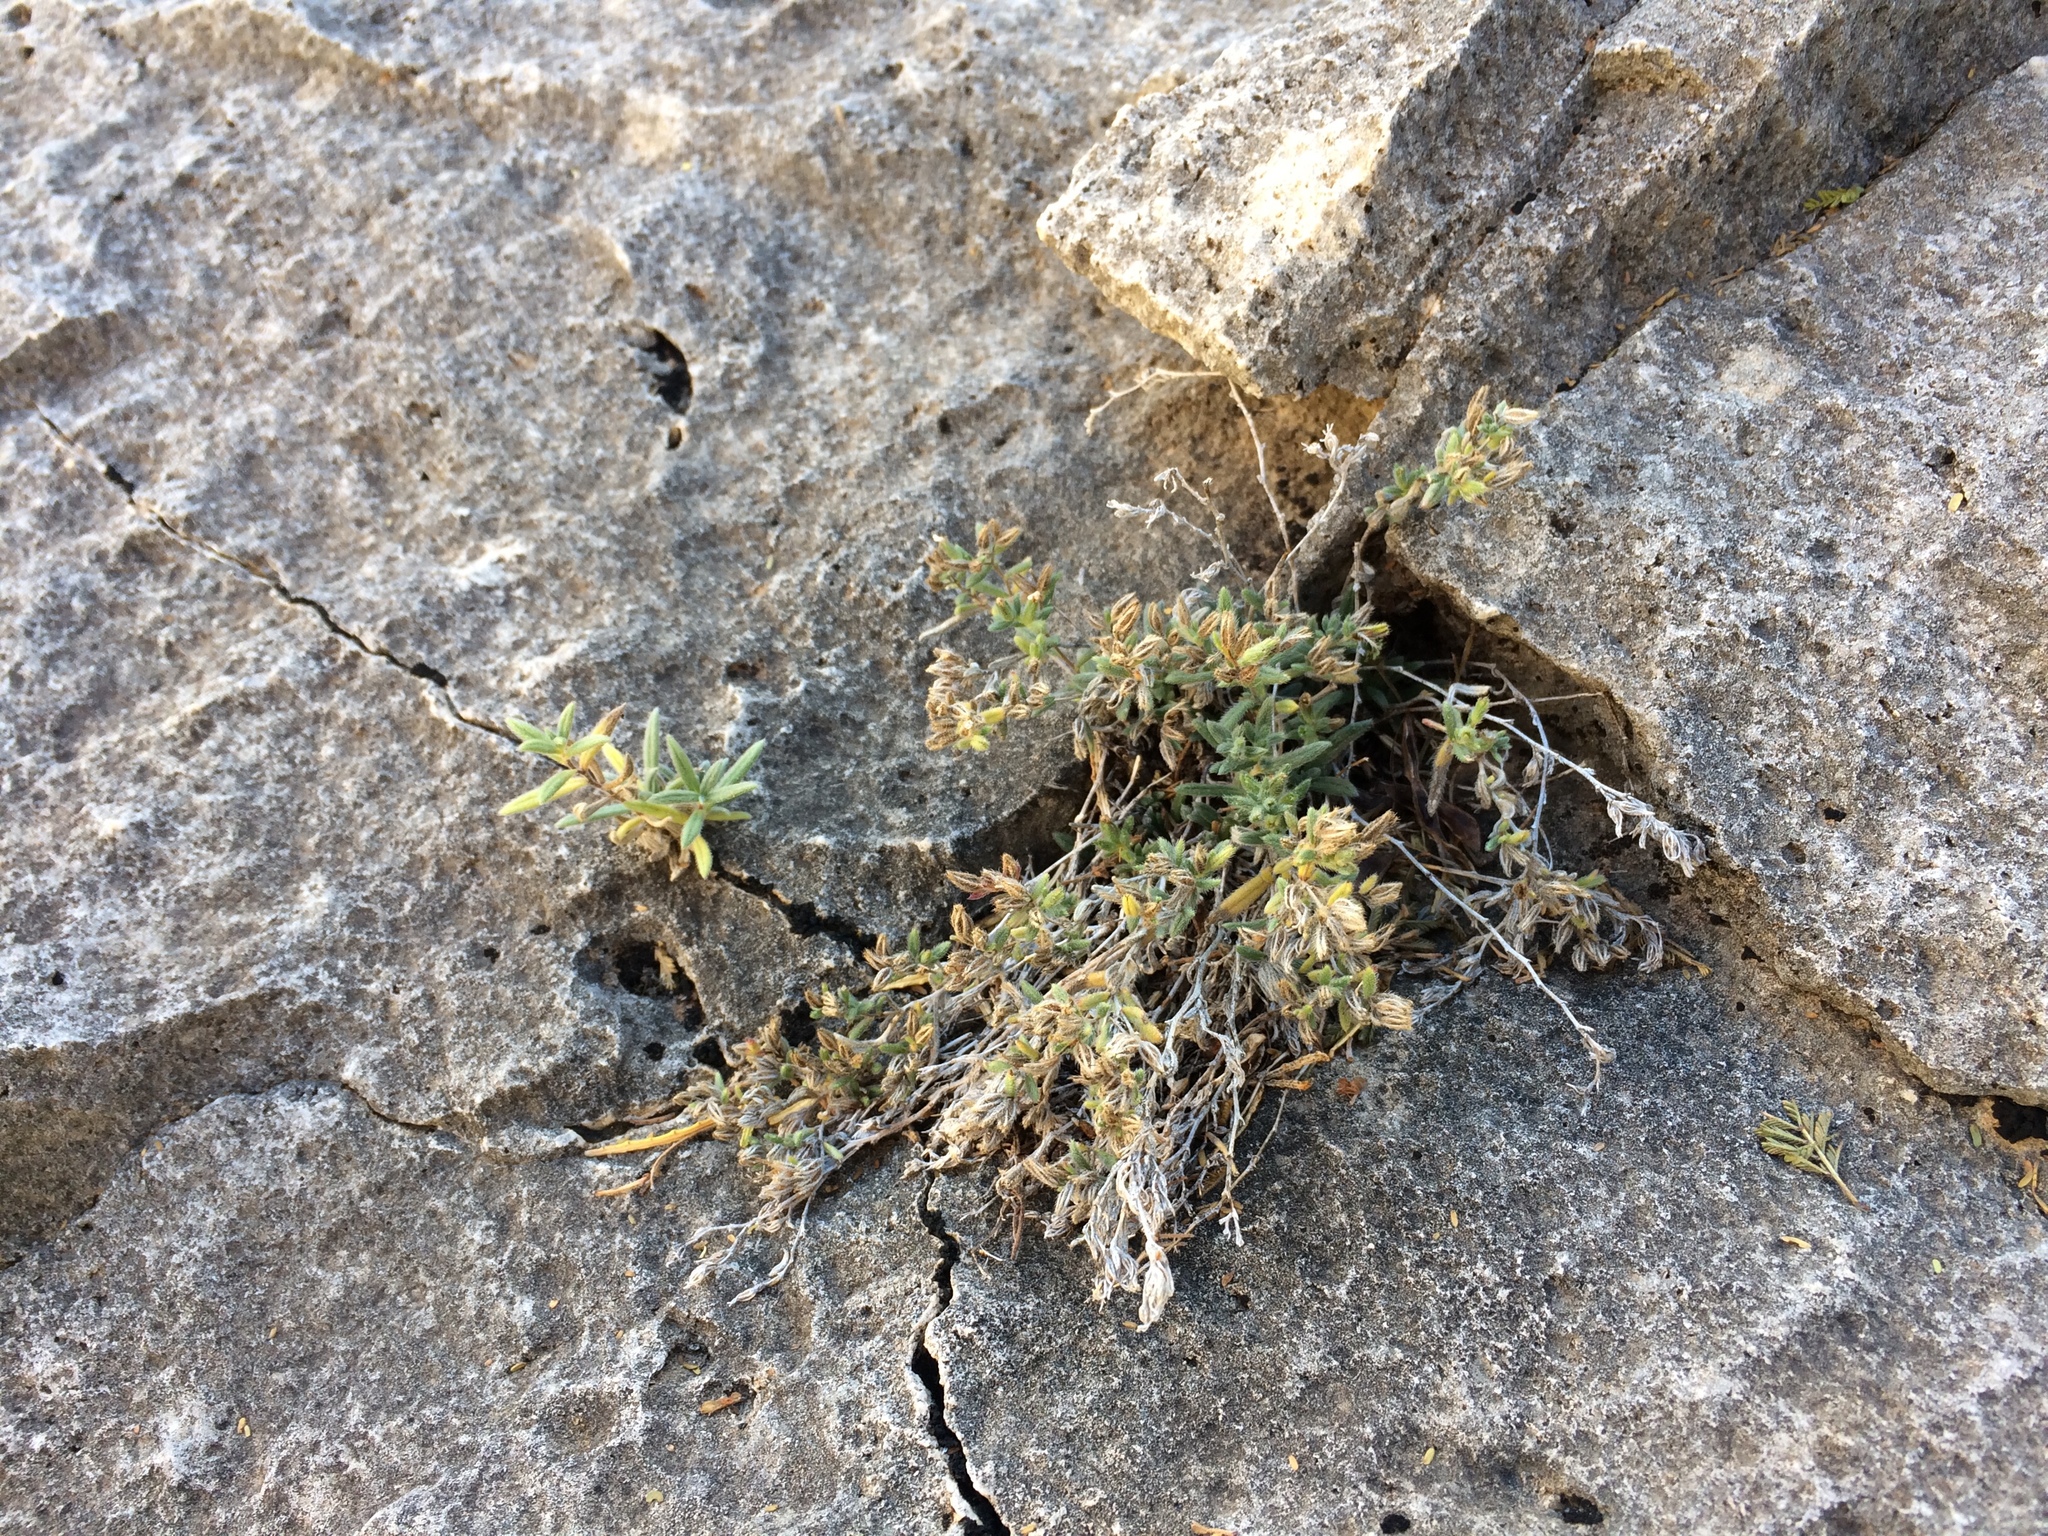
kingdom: Plantae
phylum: Tracheophyta
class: Magnoliopsida
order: Boraginales
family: Namaceae
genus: Nama
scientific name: Nama xylopoda
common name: Yellowseed fiddleleaf
